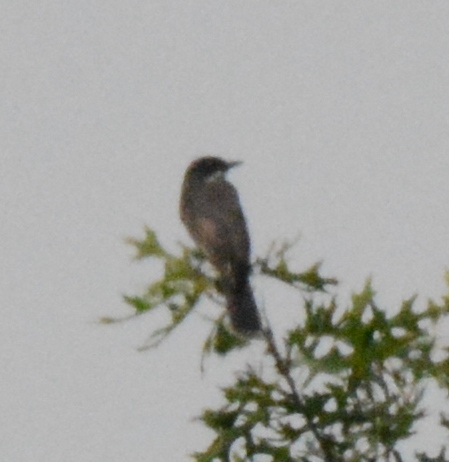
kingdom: Animalia
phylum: Chordata
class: Aves
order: Passeriformes
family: Tyrannidae
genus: Tyrannus
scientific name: Tyrannus tyrannus
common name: Eastern kingbird
